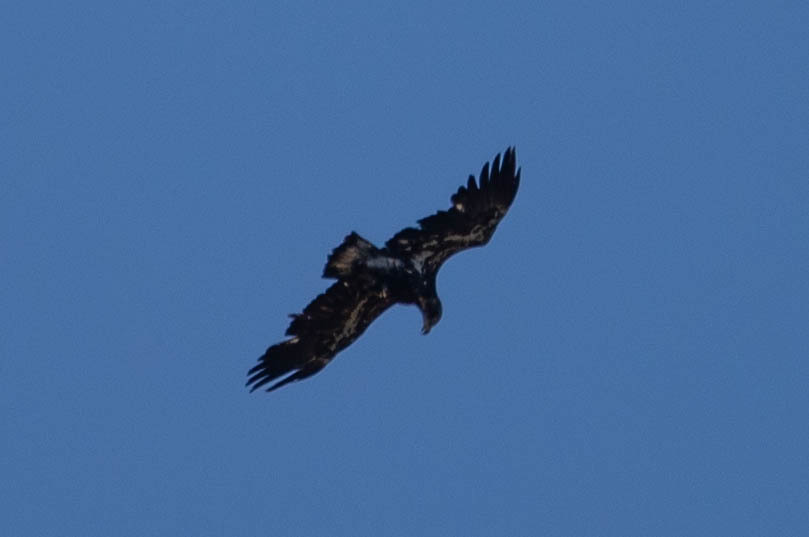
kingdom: Animalia
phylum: Chordata
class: Aves
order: Accipitriformes
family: Accipitridae
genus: Haliaeetus
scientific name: Haliaeetus leucocephalus
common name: Bald eagle
